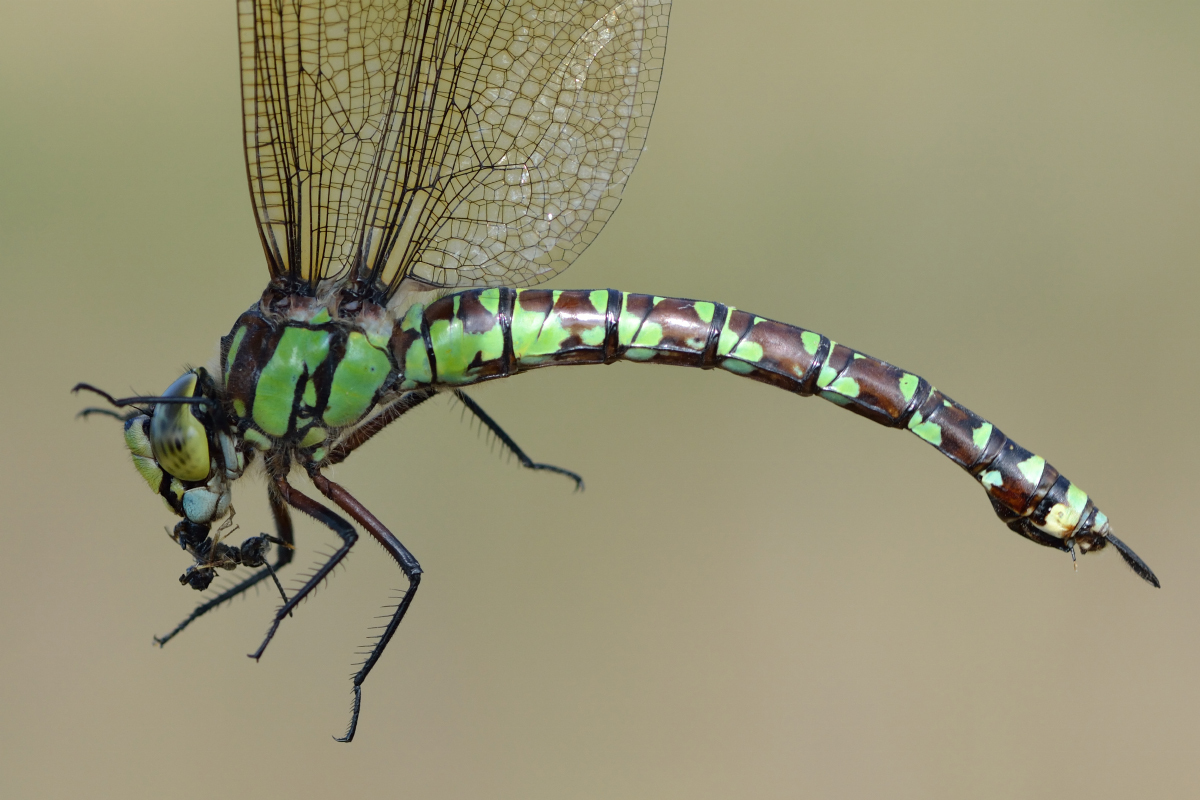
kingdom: Animalia
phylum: Arthropoda
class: Insecta
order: Odonata
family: Aeshnidae
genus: Aeshna
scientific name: Aeshna cyanea
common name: Southern hawker
